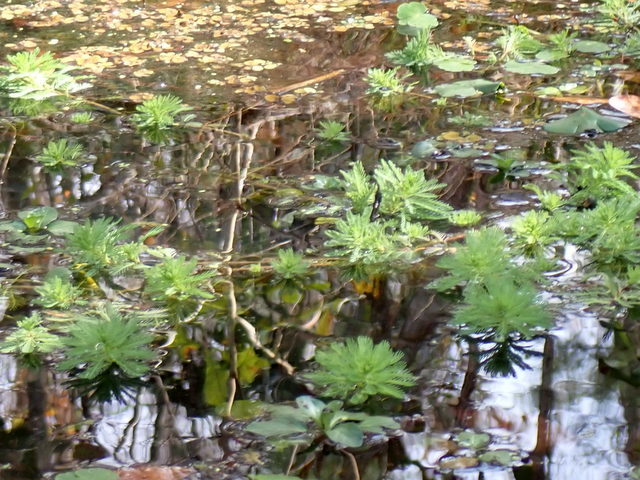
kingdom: Plantae
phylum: Tracheophyta
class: Magnoliopsida
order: Saxifragales
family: Haloragaceae
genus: Myriophyllum
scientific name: Myriophyllum aquaticum
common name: Parrot's feather
